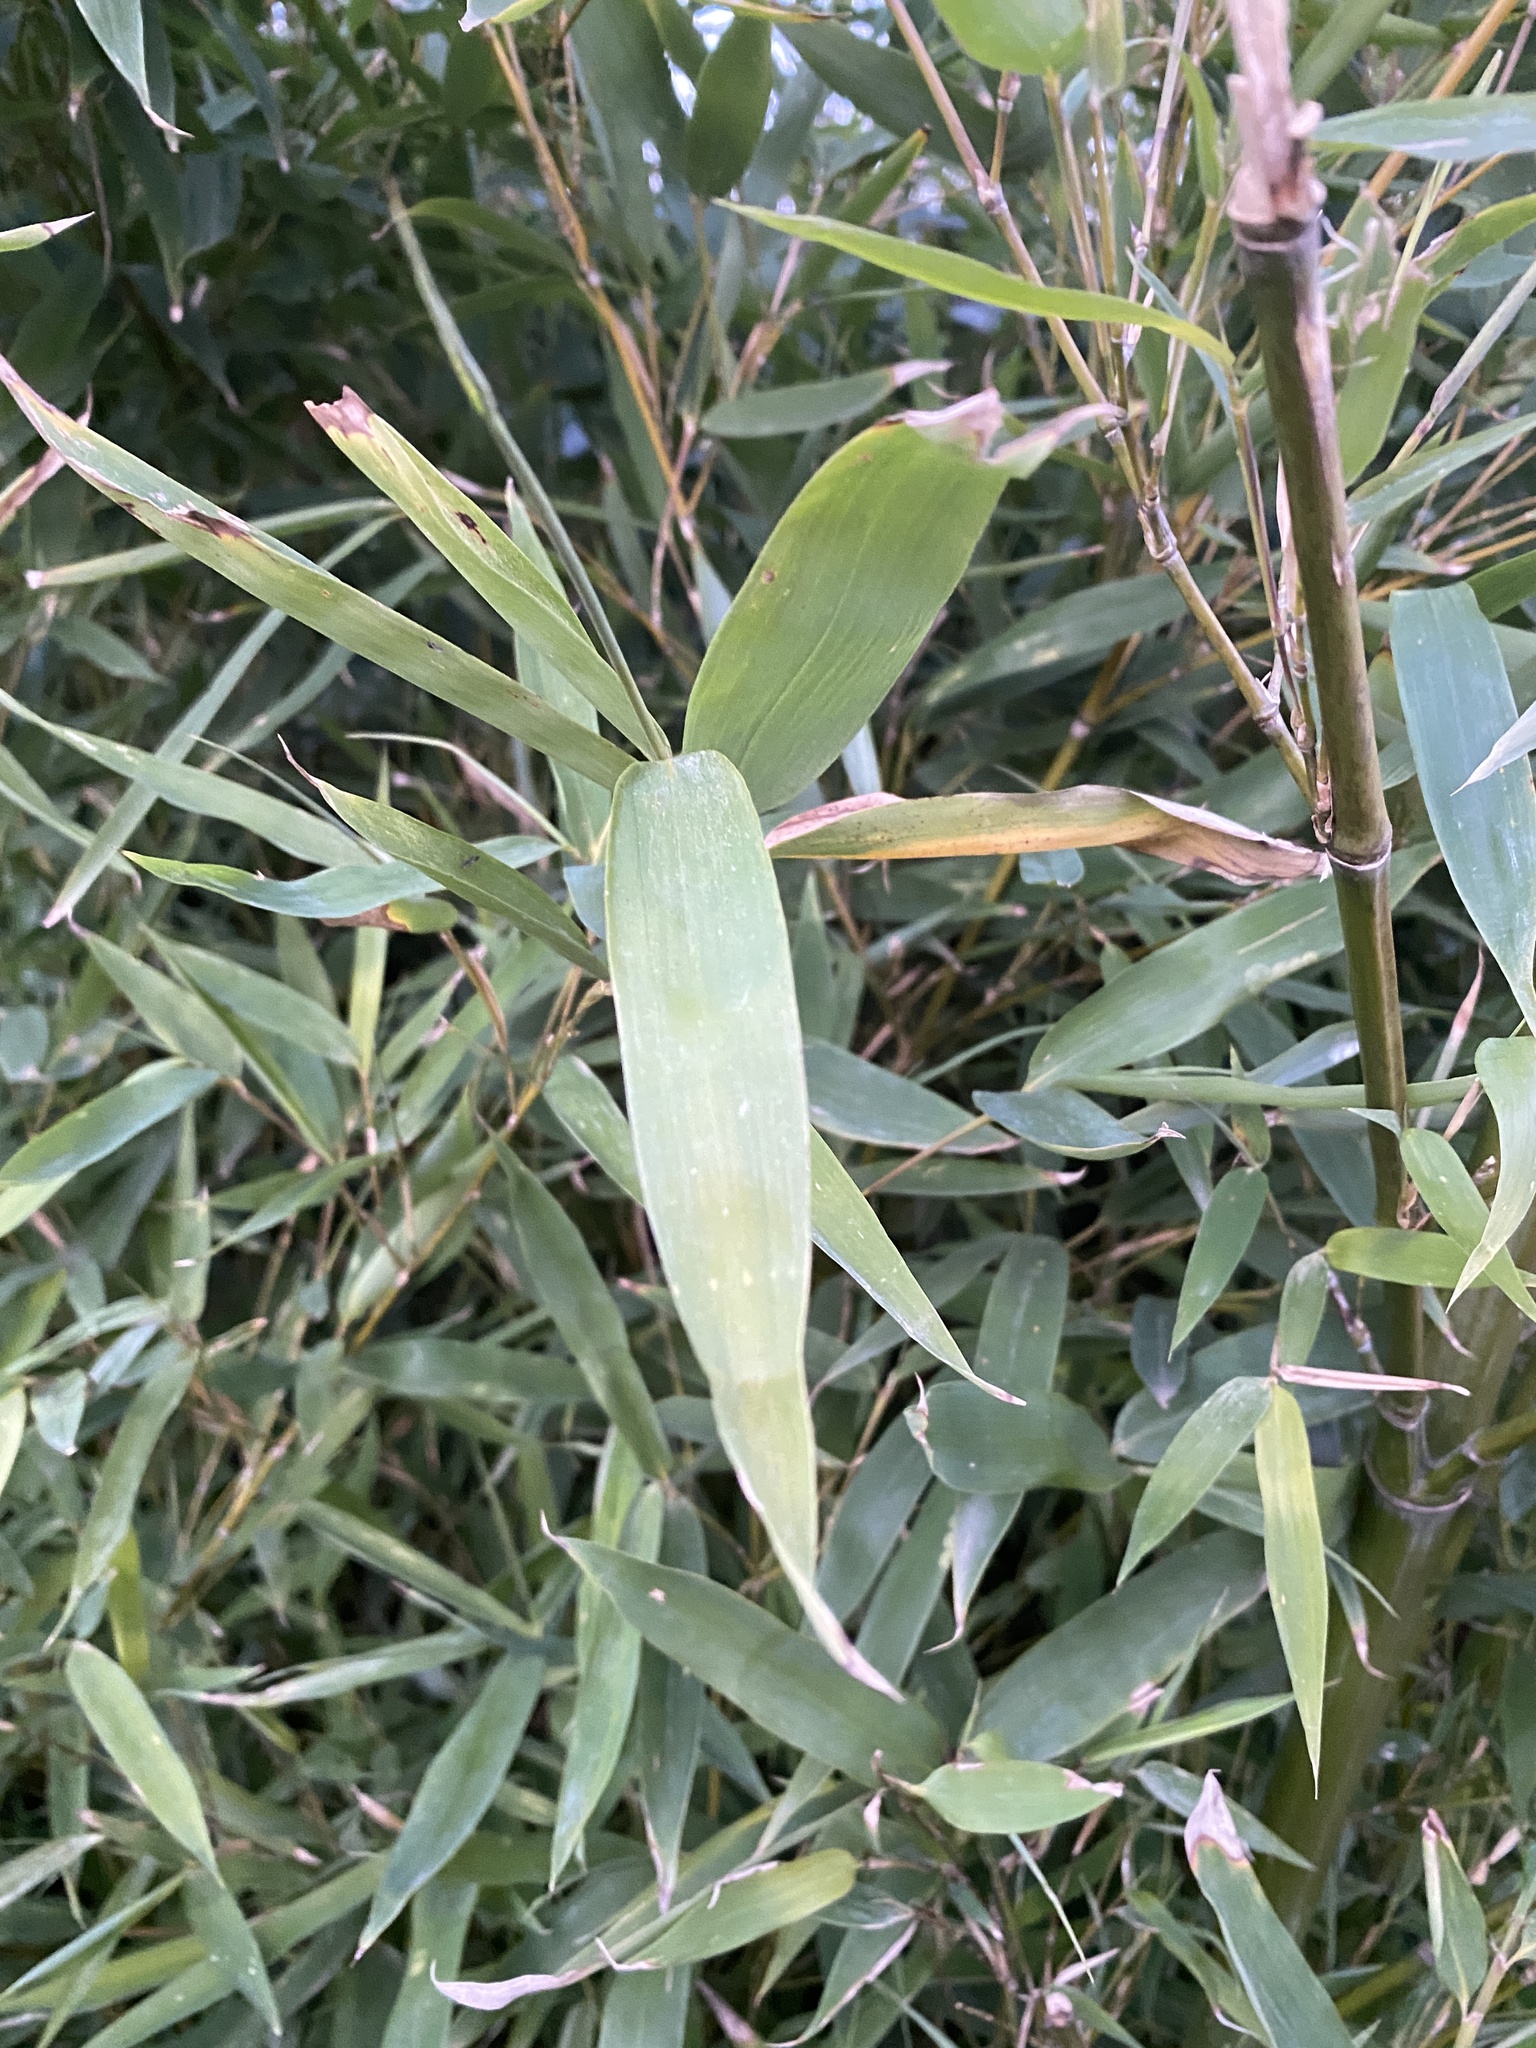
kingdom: Plantae
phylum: Tracheophyta
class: Liliopsida
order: Poales
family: Poaceae
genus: Phyllostachys
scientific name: Phyllostachys aurea
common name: Golden bamboo
